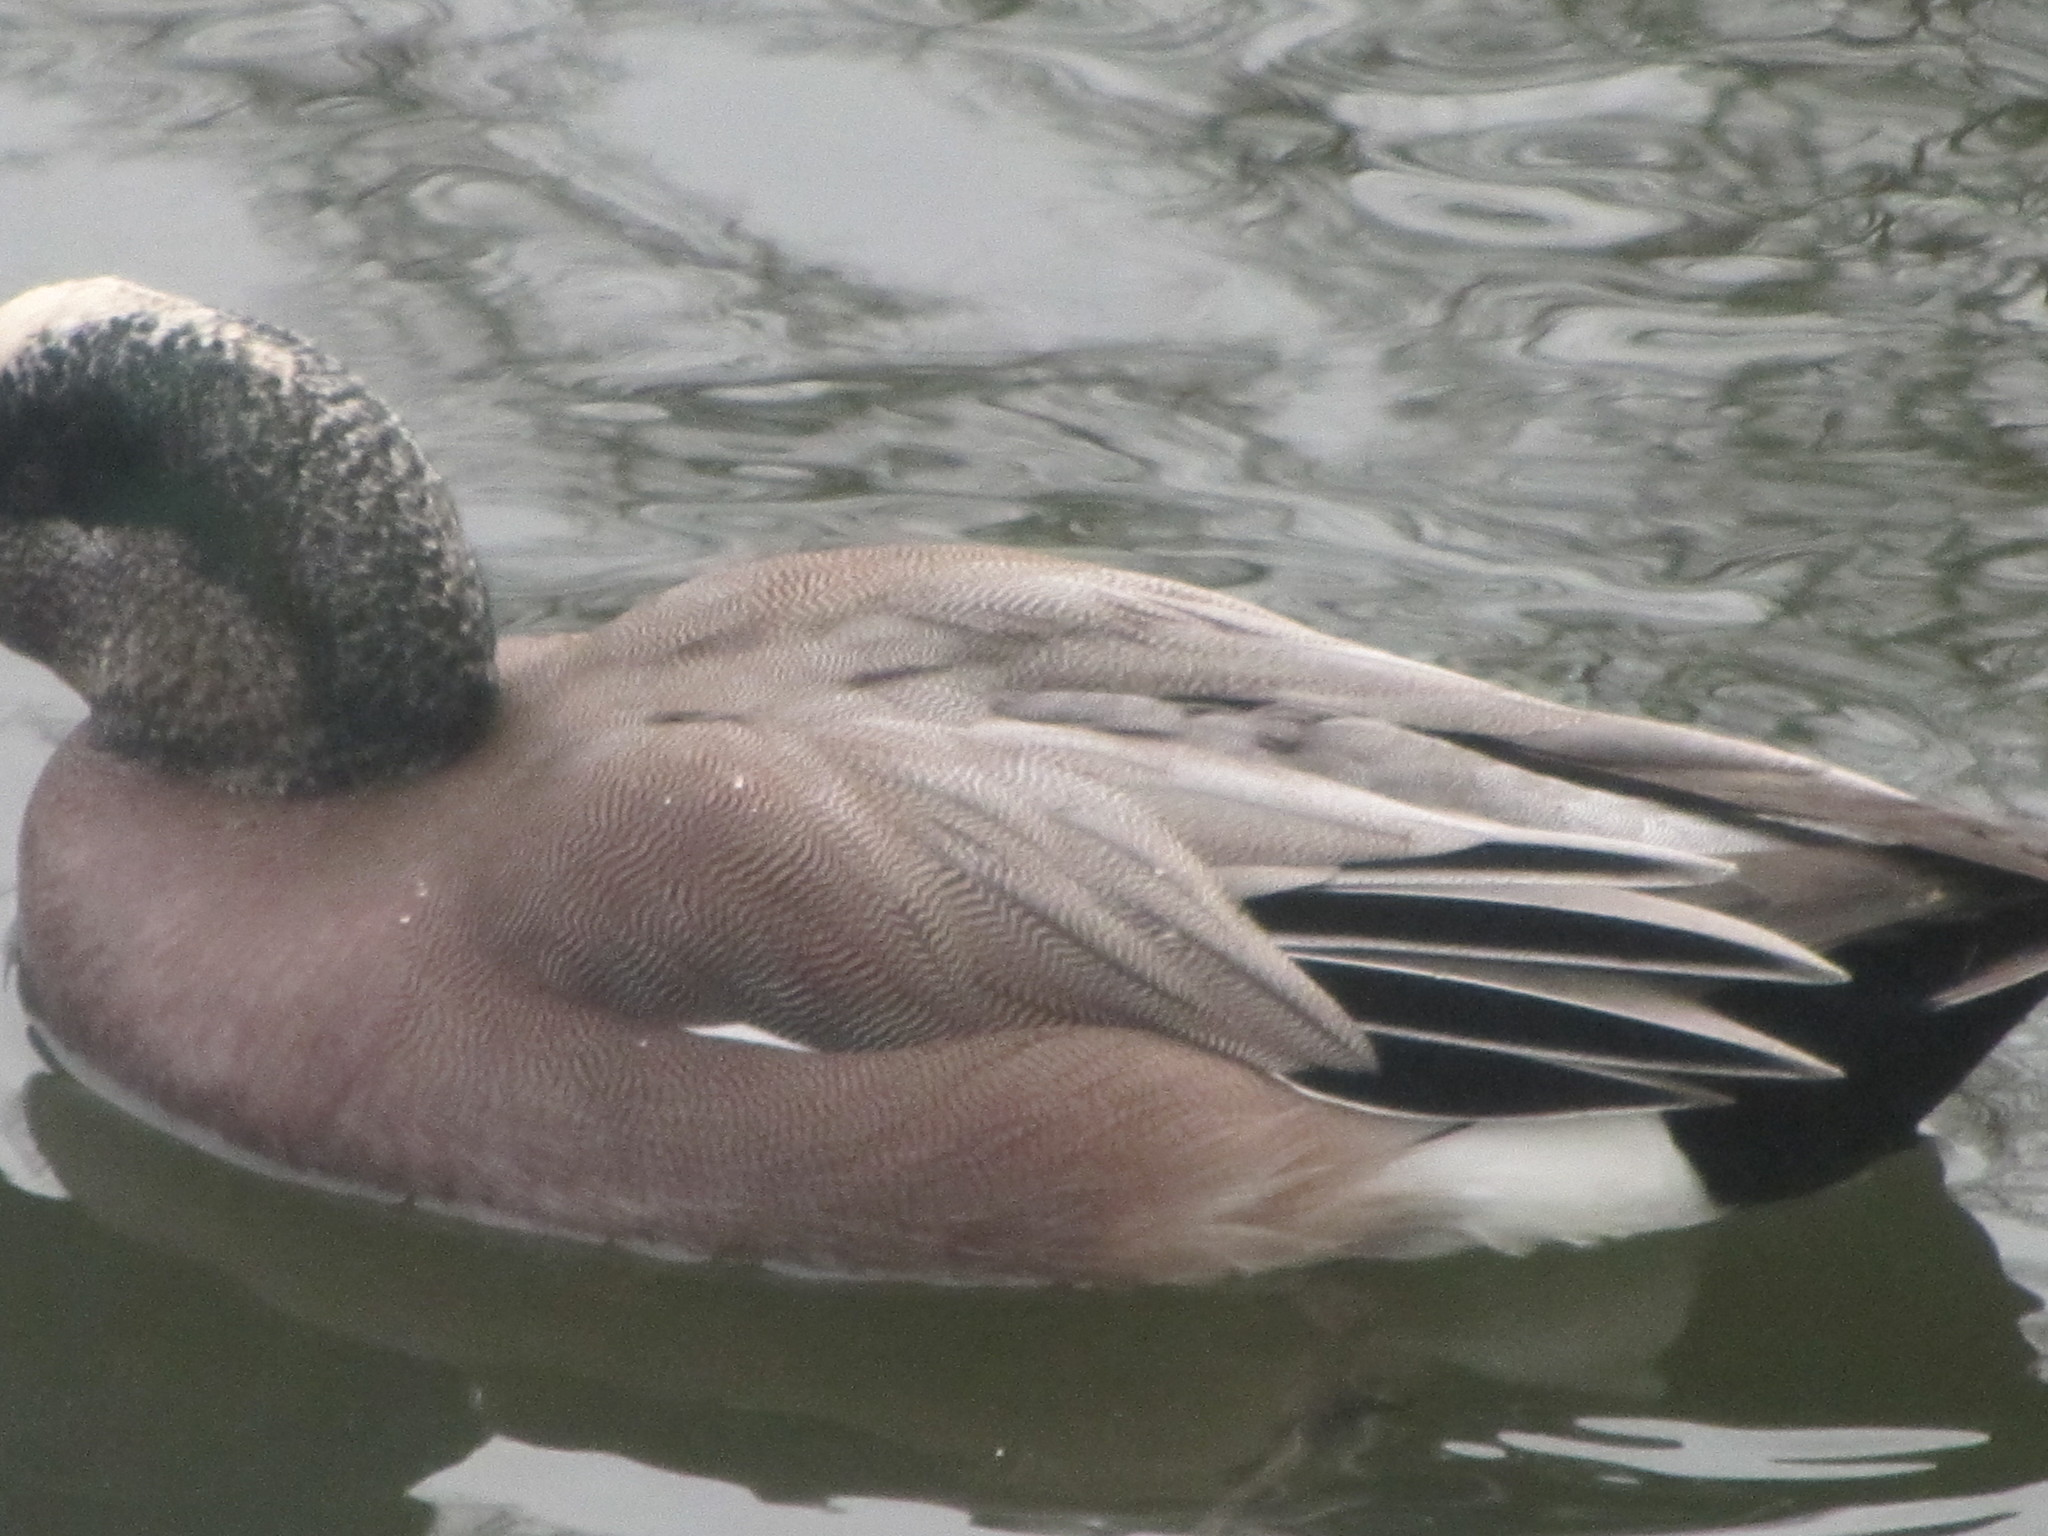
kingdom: Animalia
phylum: Chordata
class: Aves
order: Anseriformes
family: Anatidae
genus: Mareca
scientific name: Mareca americana
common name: American wigeon
